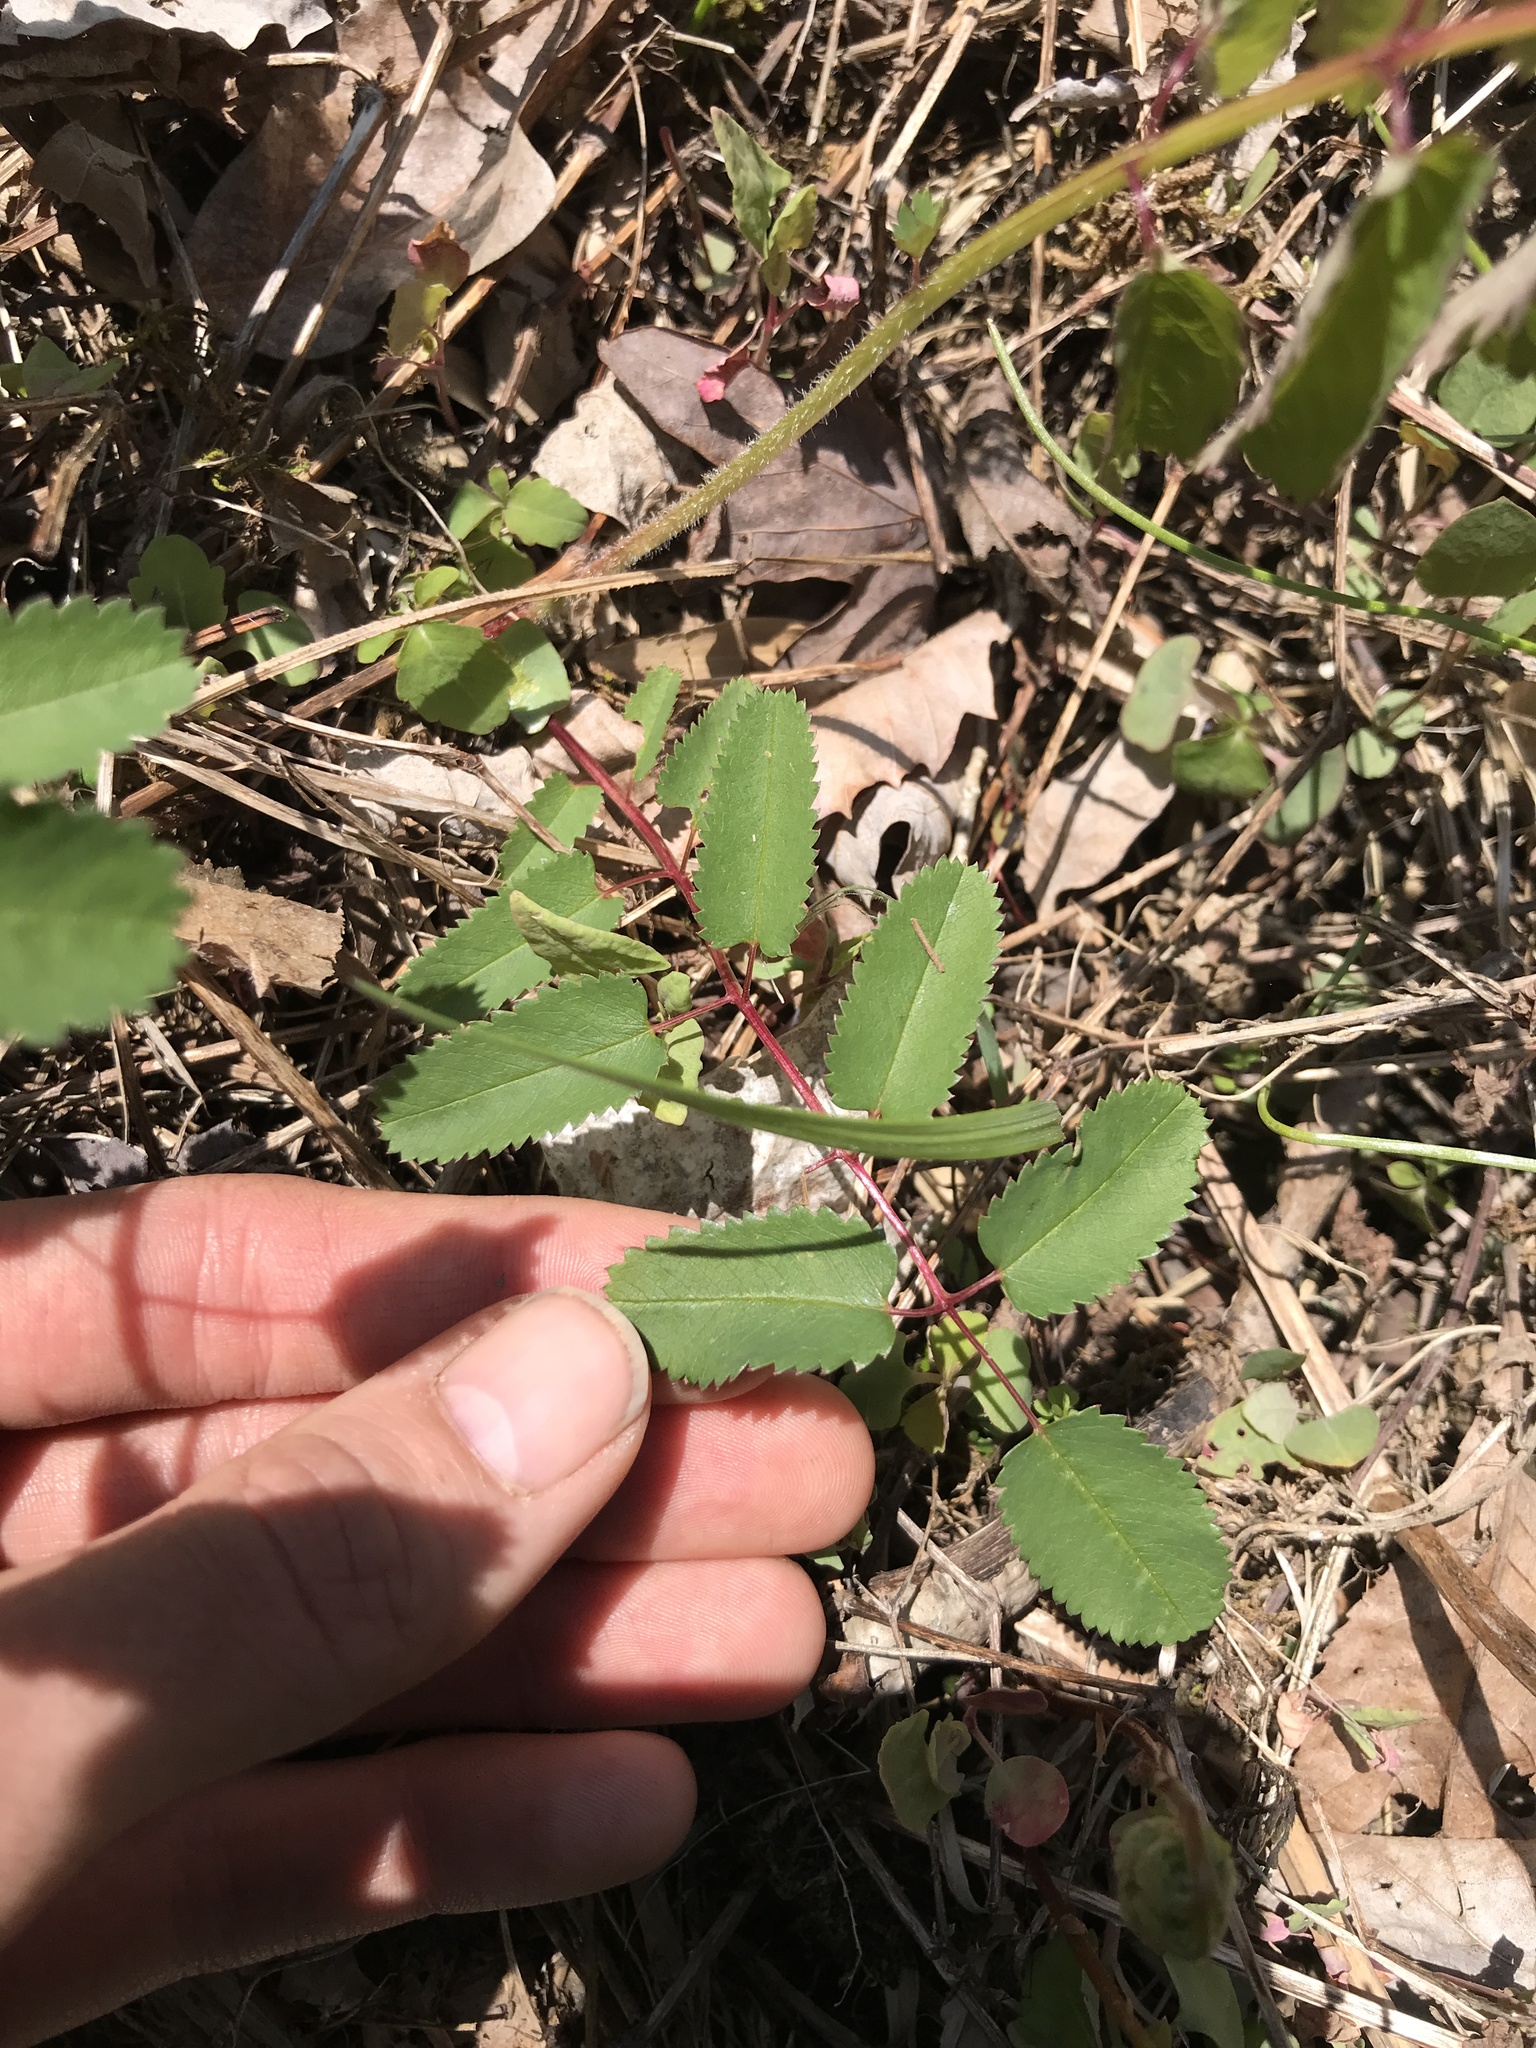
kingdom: Plantae
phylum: Tracheophyta
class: Magnoliopsida
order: Rosales
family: Rosaceae
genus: Sanguisorba
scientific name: Sanguisorba canadensis
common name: White burnet
